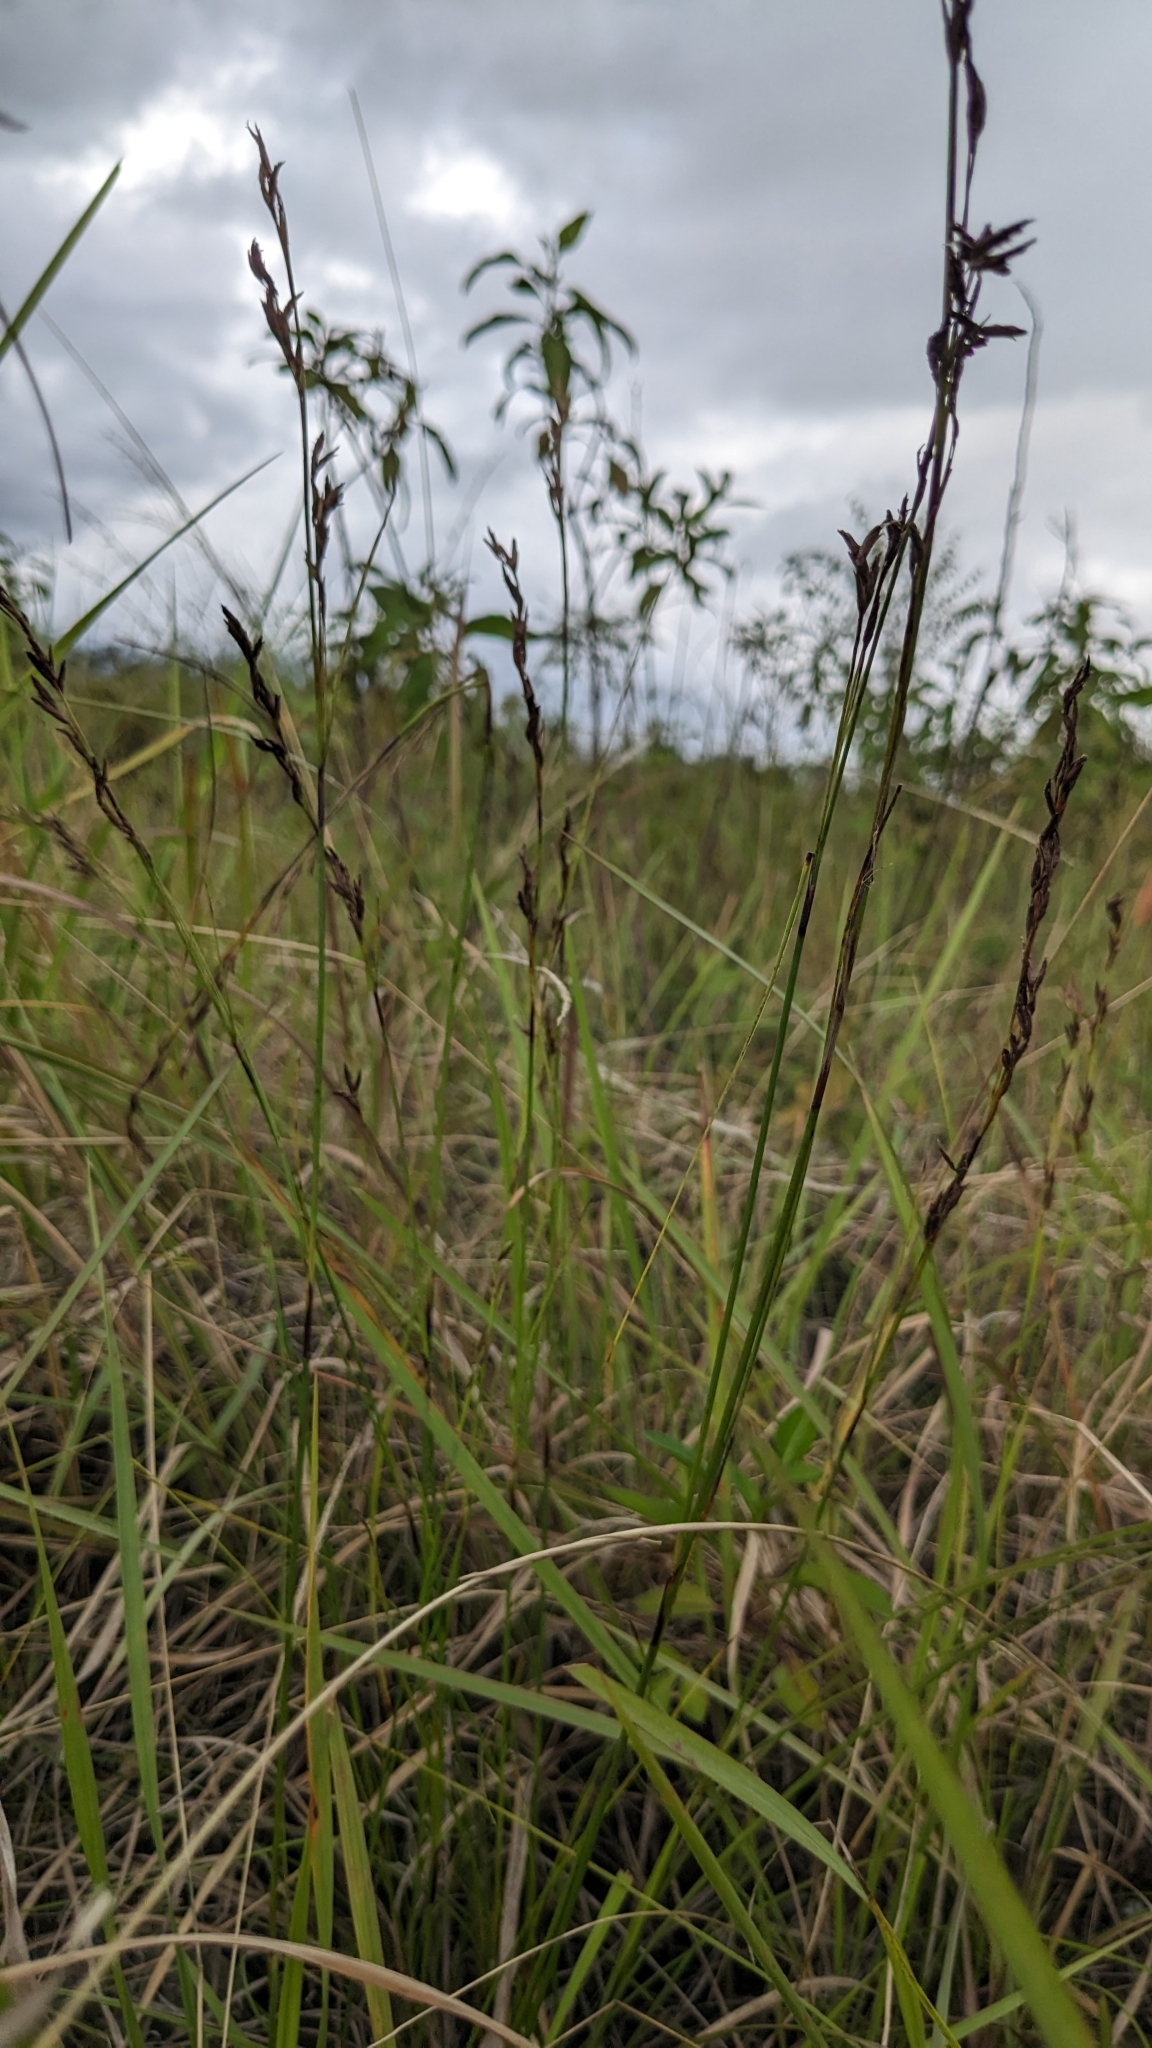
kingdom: Plantae
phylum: Tracheophyta
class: Liliopsida
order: Poales
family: Cyperaceae
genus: Schoenus
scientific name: Schoenus falcatus
